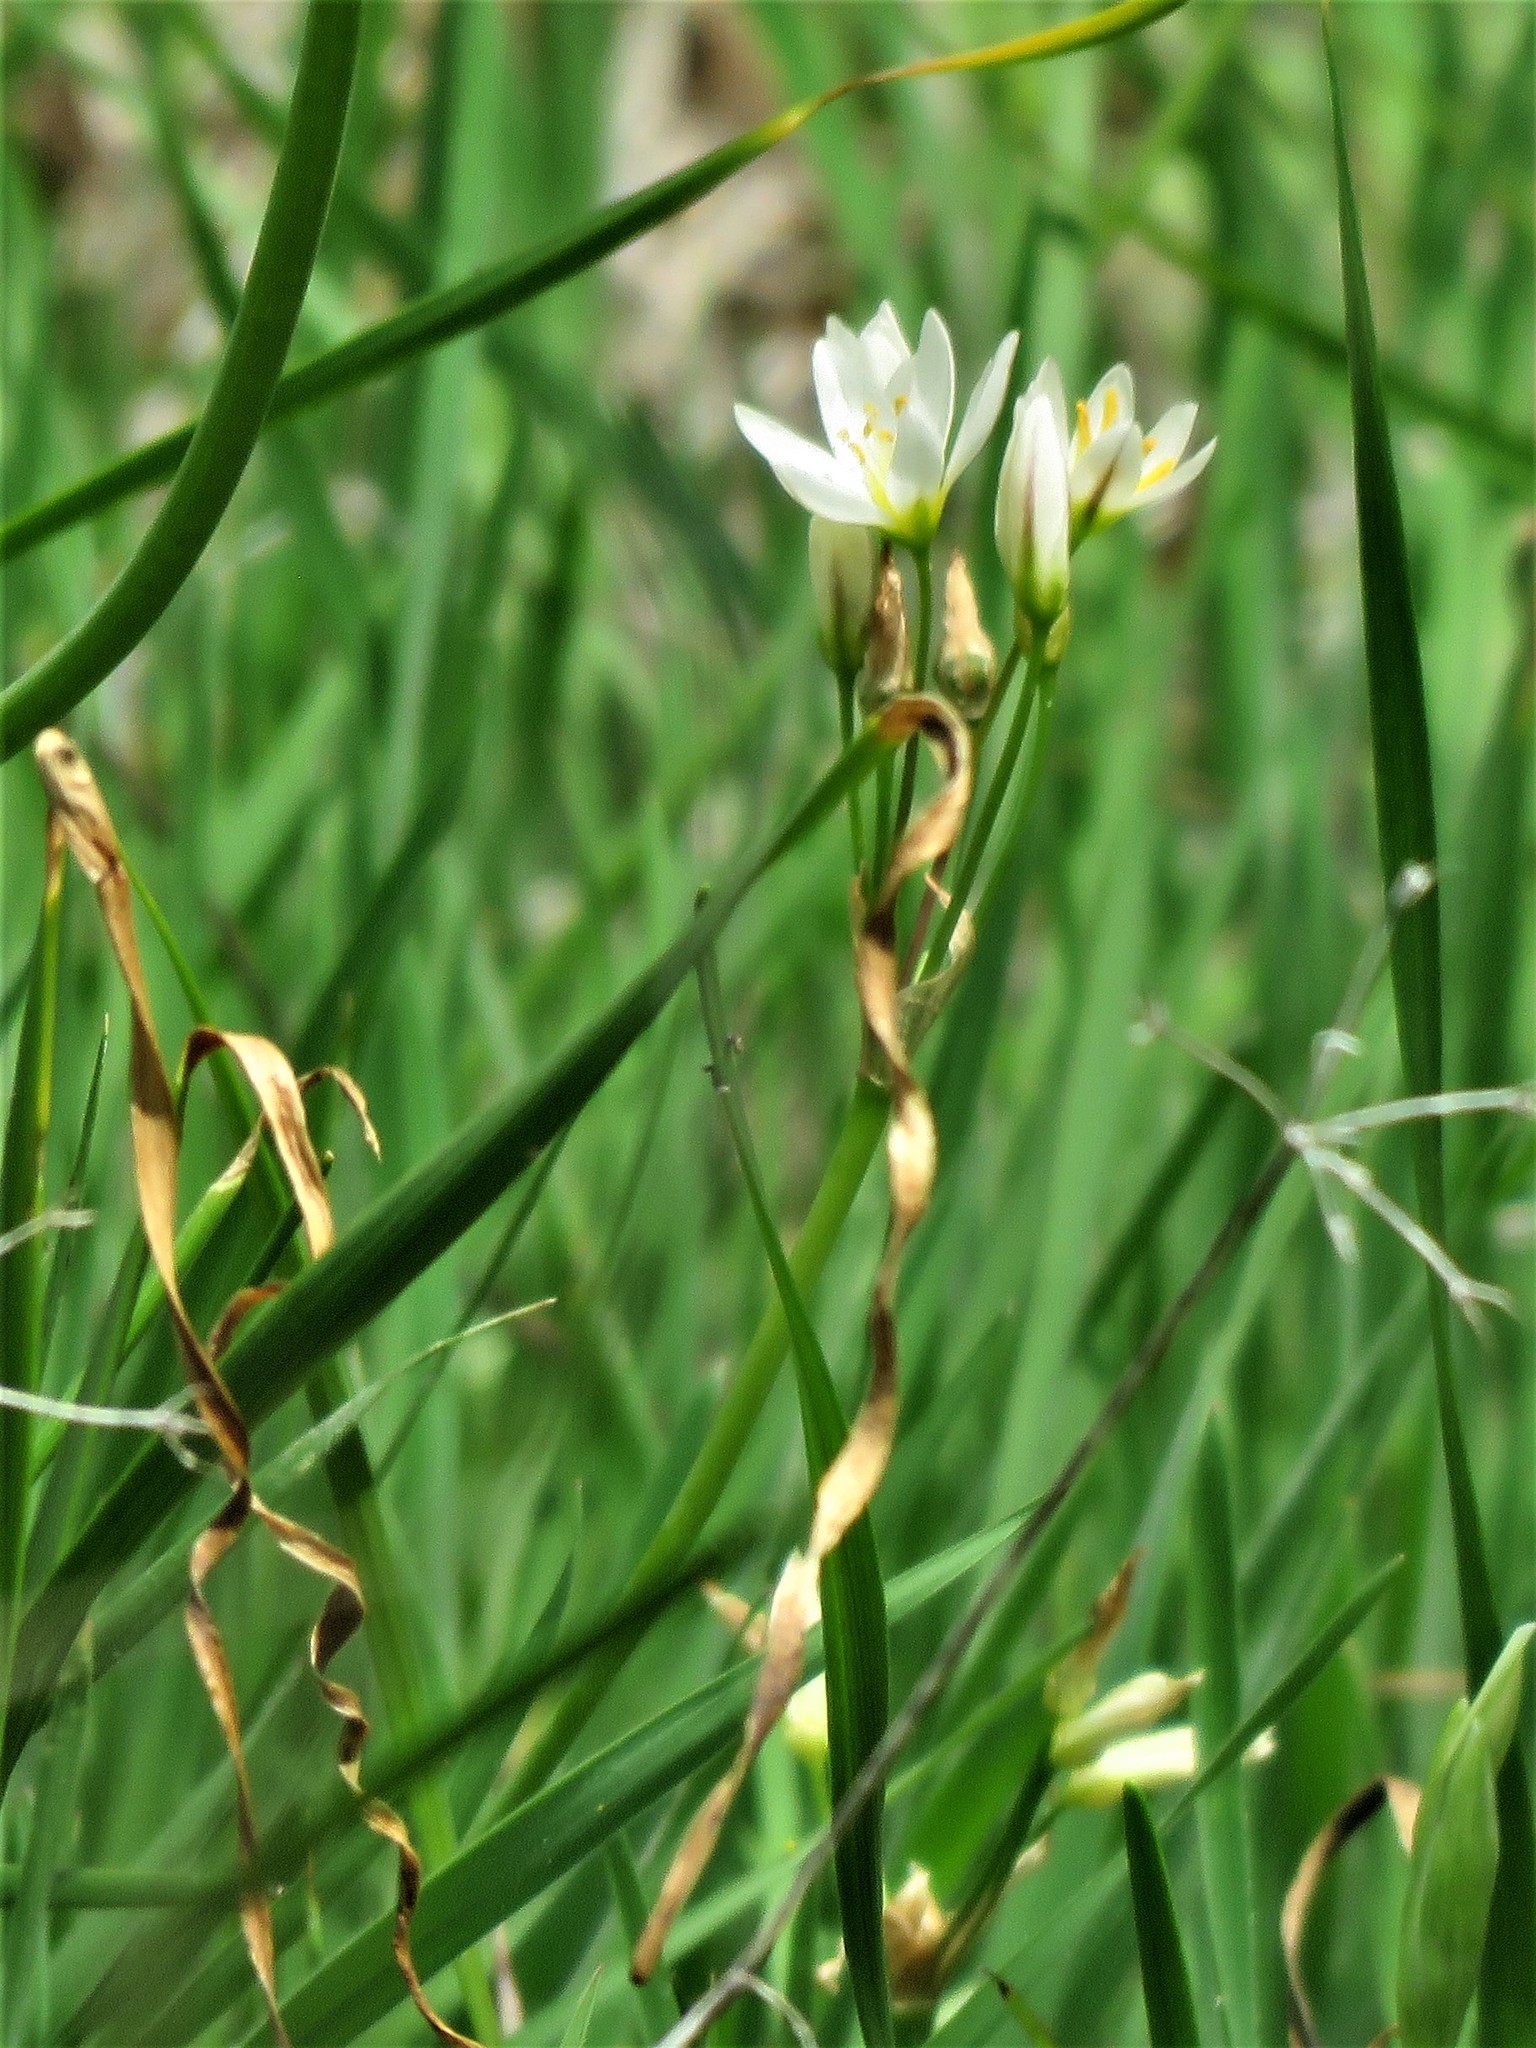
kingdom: Plantae
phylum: Tracheophyta
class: Liliopsida
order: Asparagales
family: Amaryllidaceae
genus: Nothoscordum
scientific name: Nothoscordum bivalve
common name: Crow-poison
